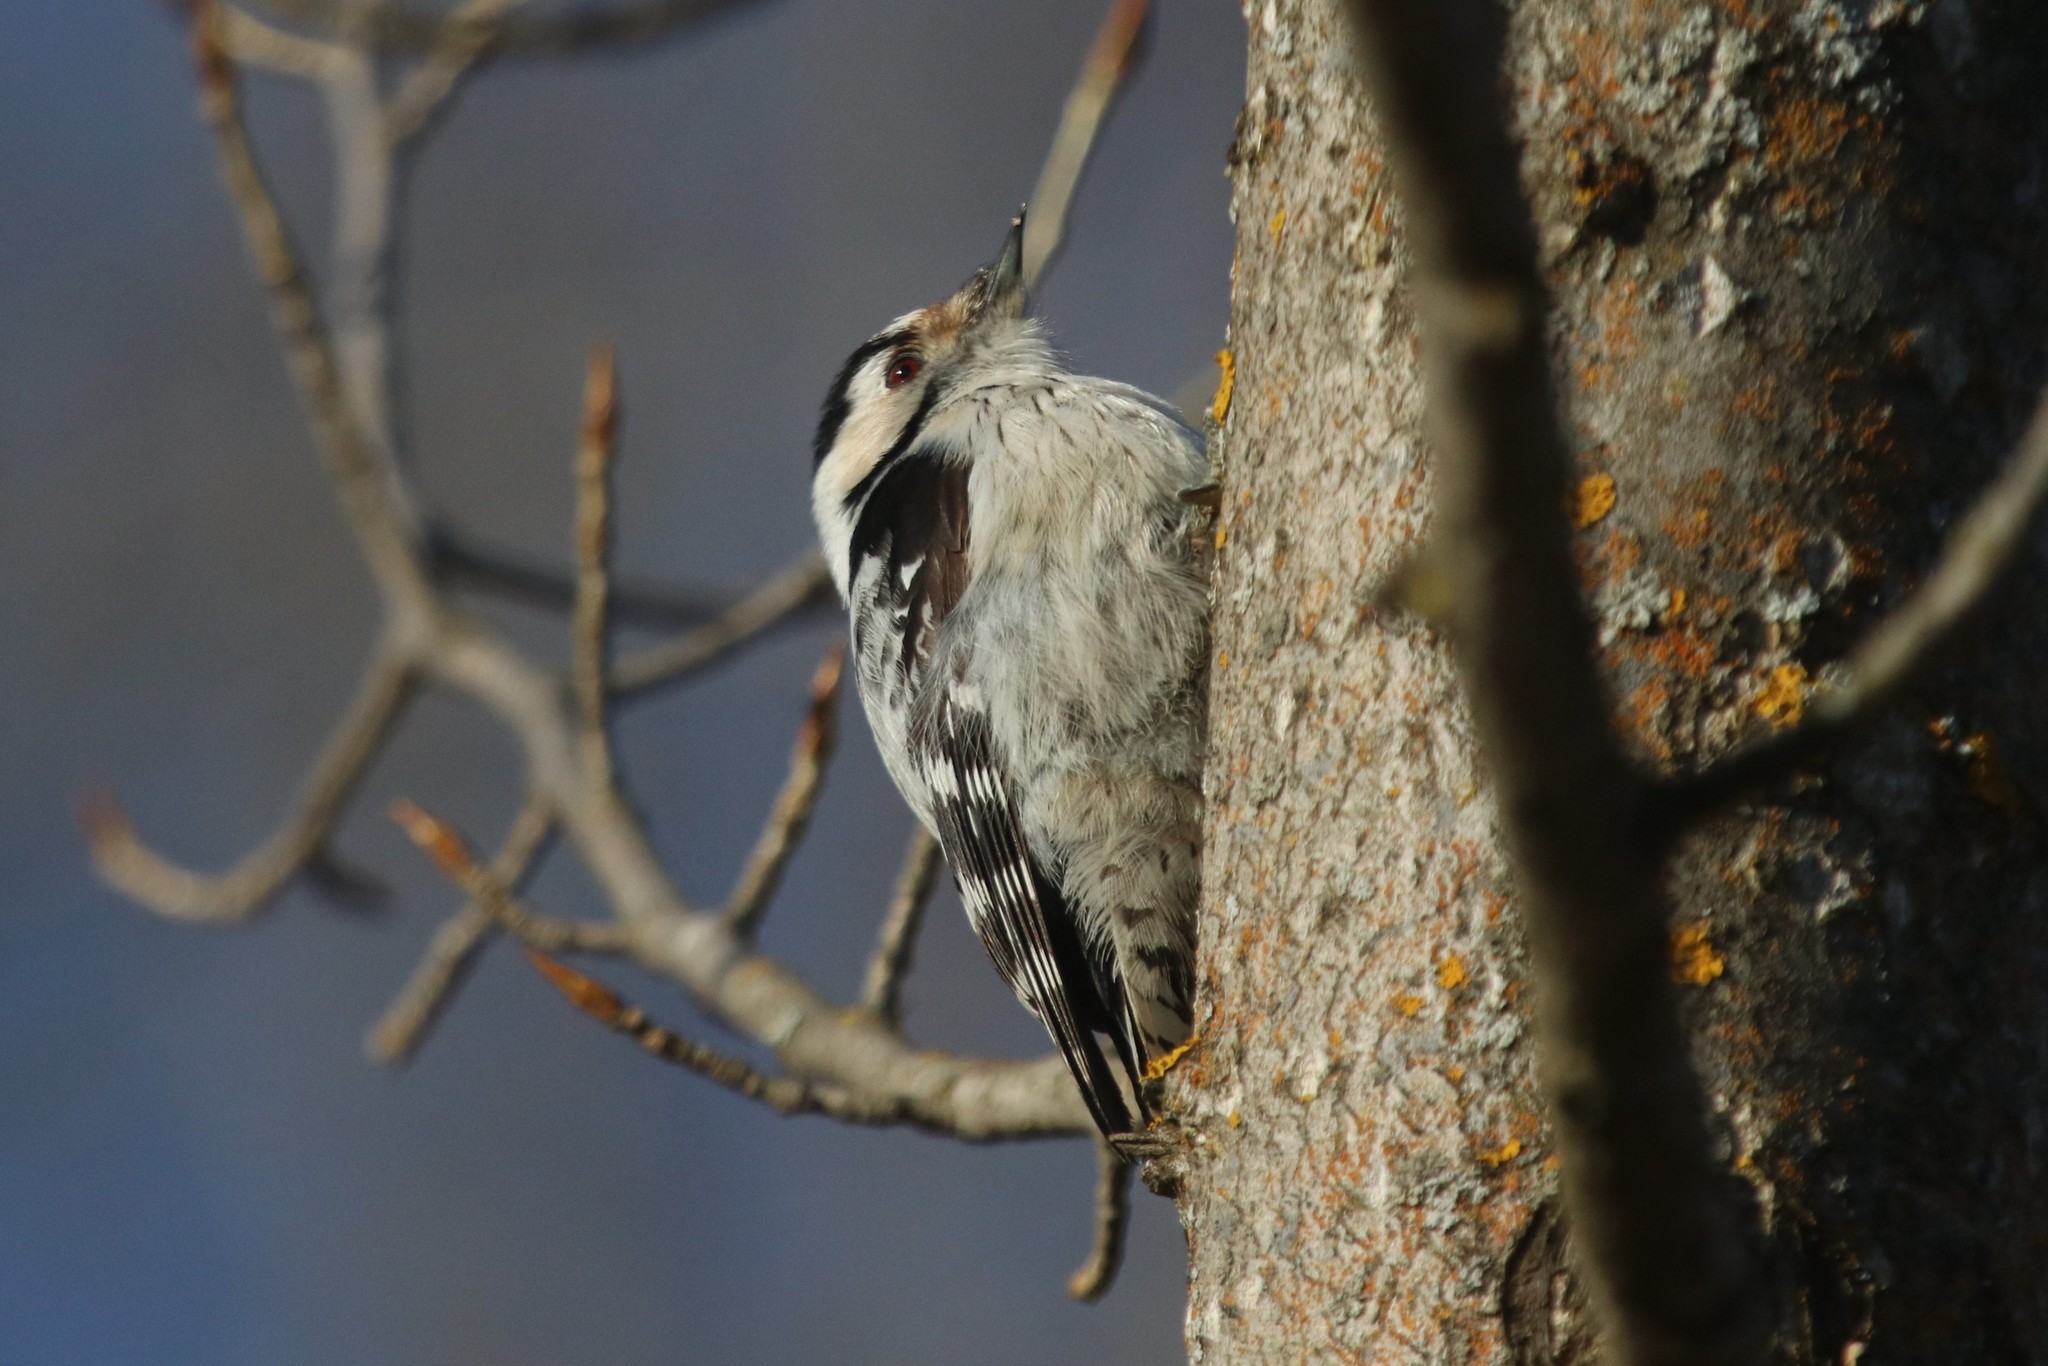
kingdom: Animalia
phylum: Chordata
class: Aves
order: Piciformes
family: Picidae
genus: Dryobates
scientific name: Dryobates minor
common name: Lesser spotted woodpecker
